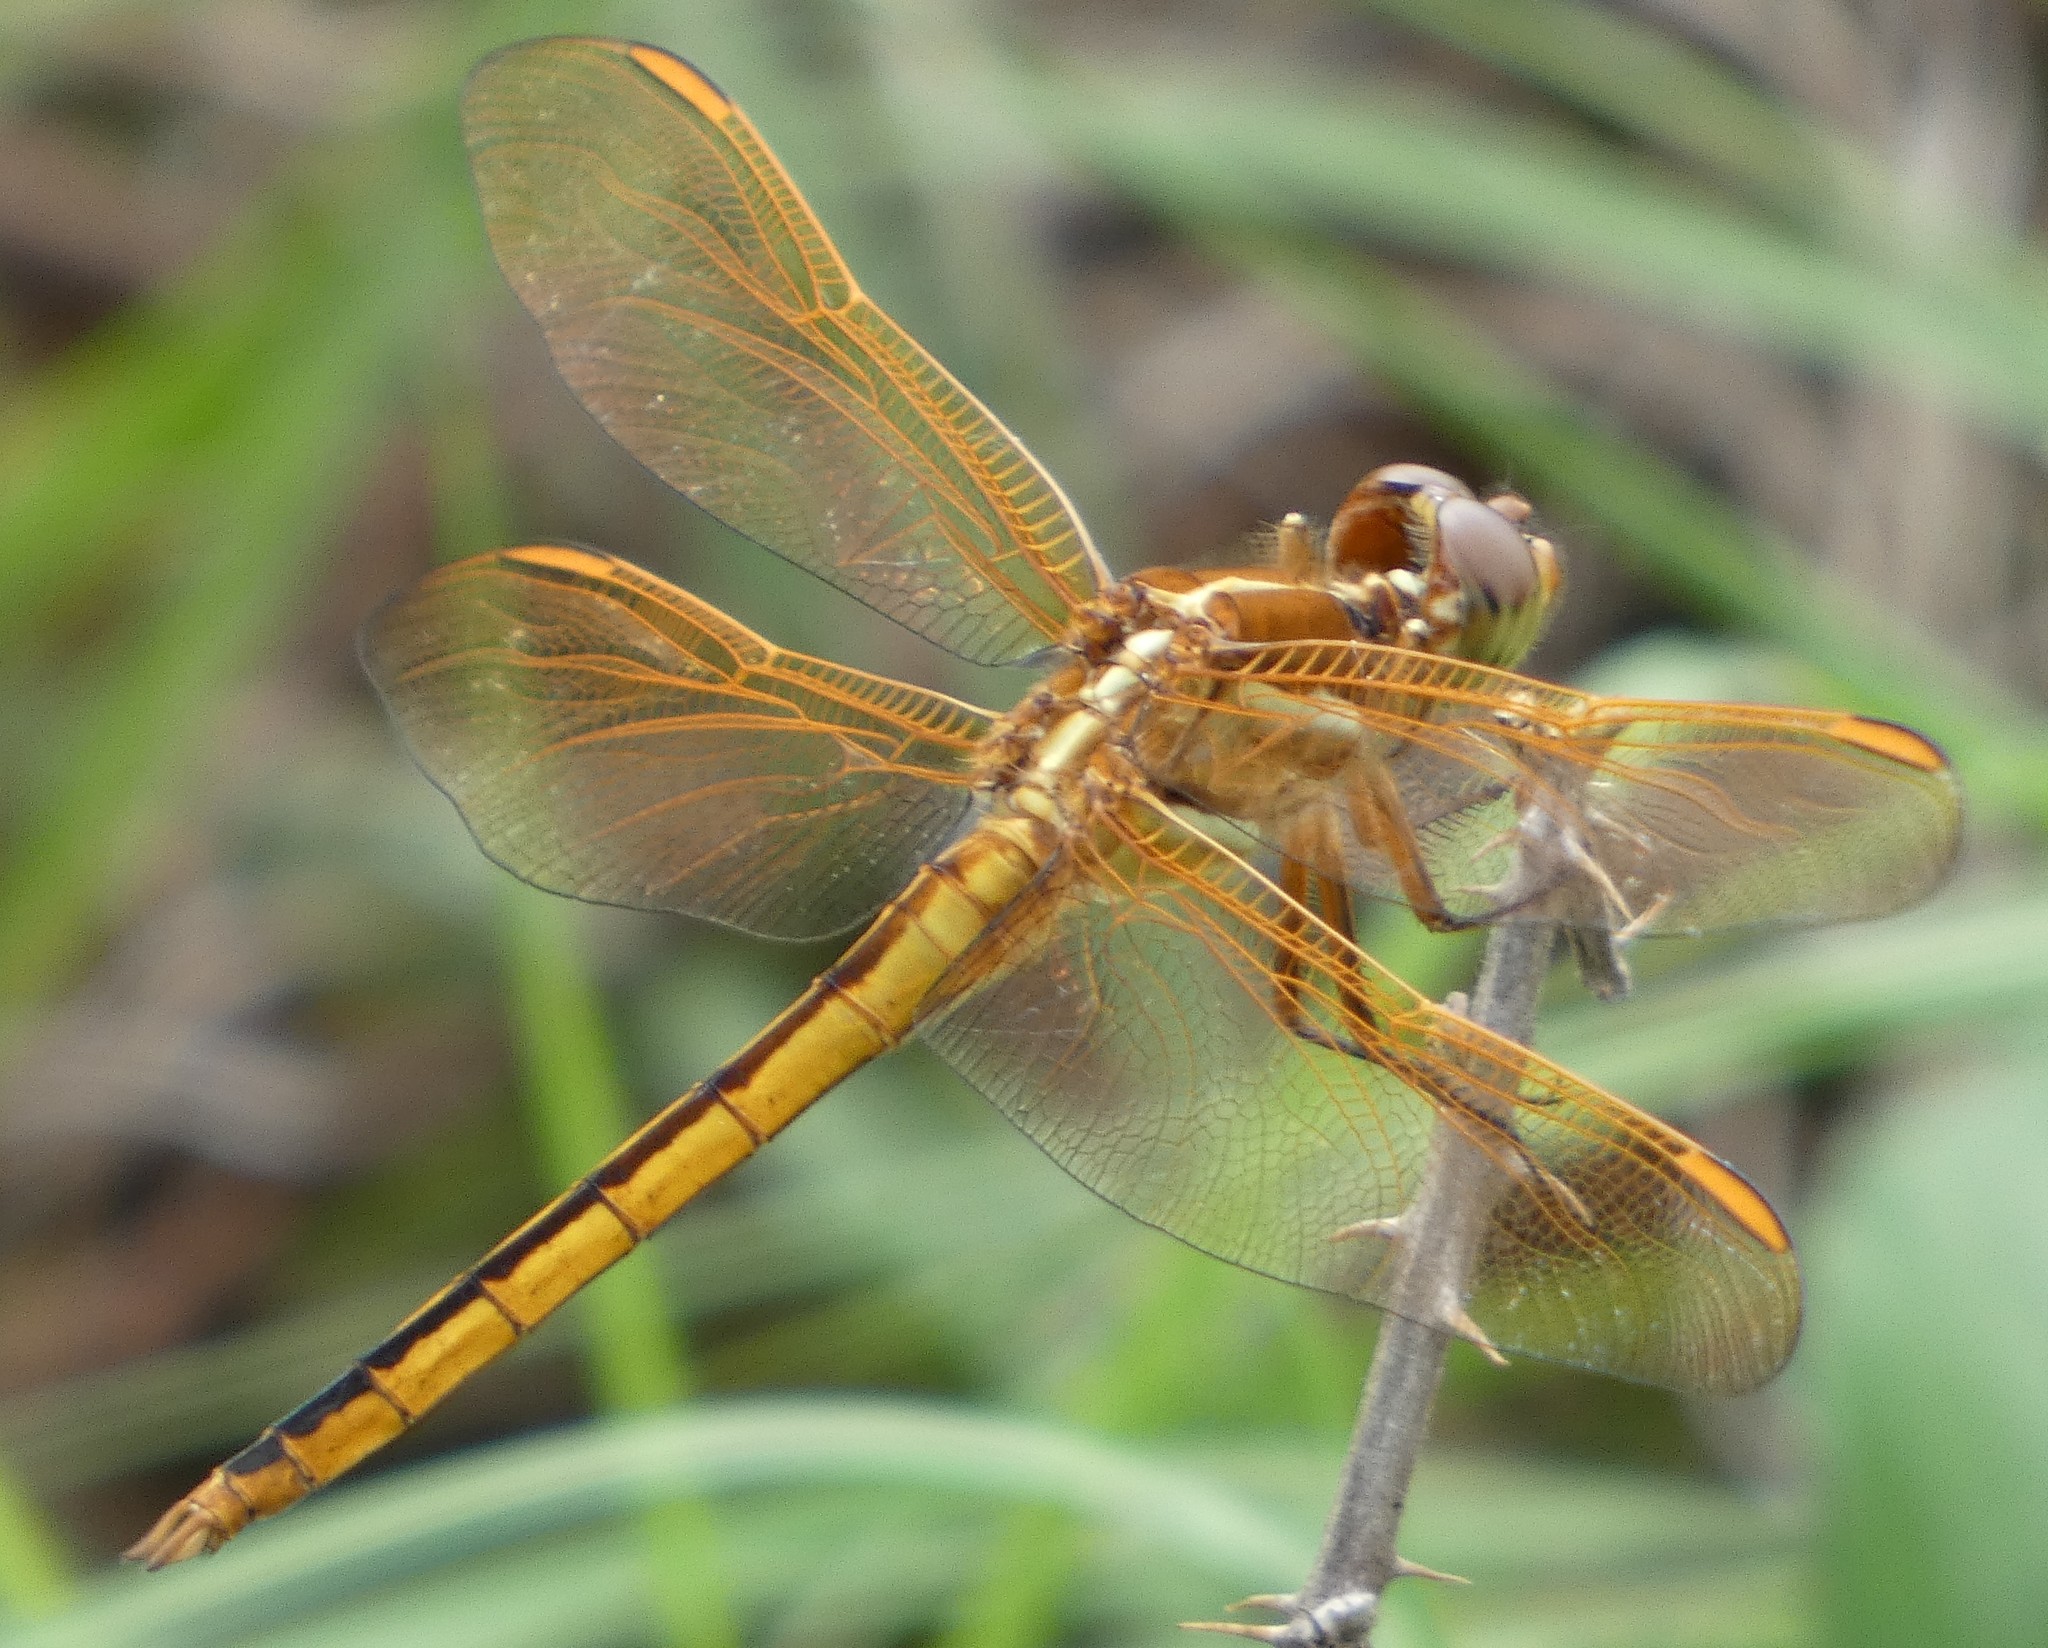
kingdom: Animalia
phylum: Arthropoda
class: Insecta
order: Odonata
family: Libellulidae
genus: Libellula
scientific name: Libellula auripennis
